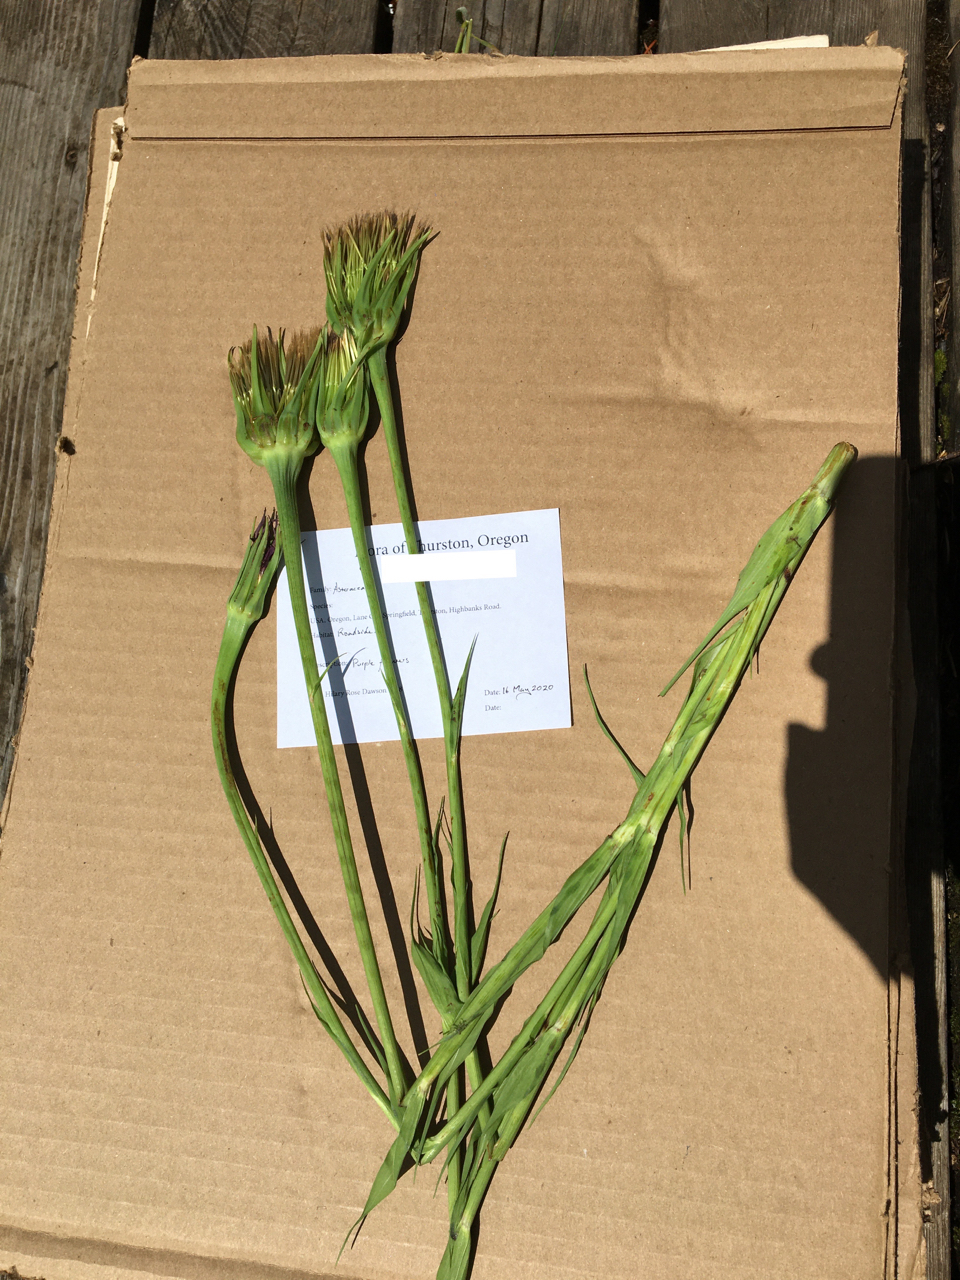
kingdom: Plantae
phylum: Tracheophyta
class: Magnoliopsida
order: Asterales
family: Asteraceae
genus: Tragopogon
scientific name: Tragopogon porrifolius
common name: Salsify
